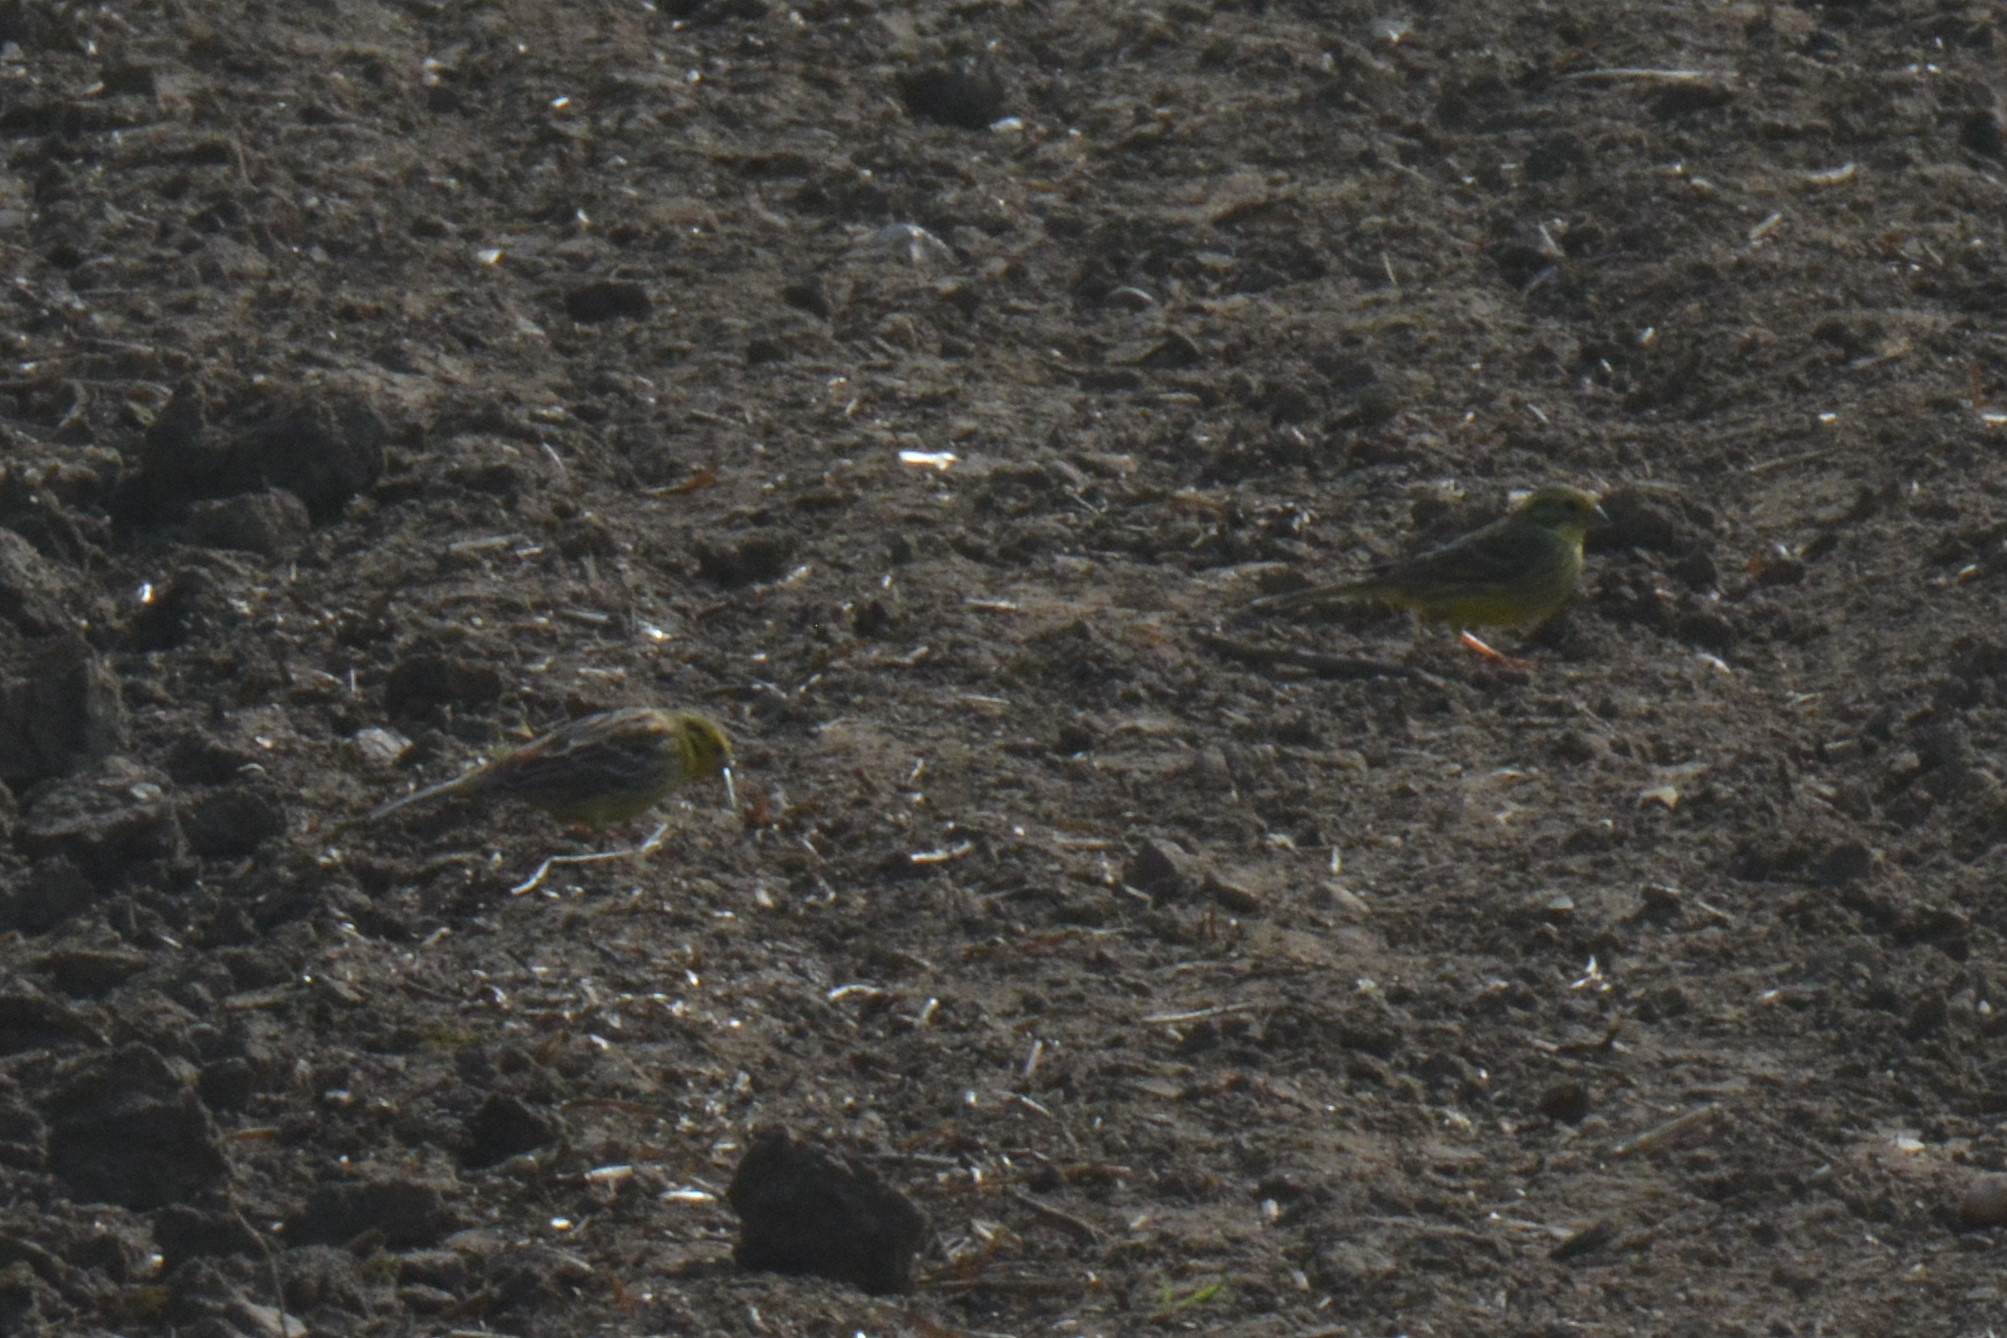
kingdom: Animalia
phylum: Chordata
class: Aves
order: Passeriformes
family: Emberizidae
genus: Emberiza
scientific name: Emberiza citrinella
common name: Yellowhammer
